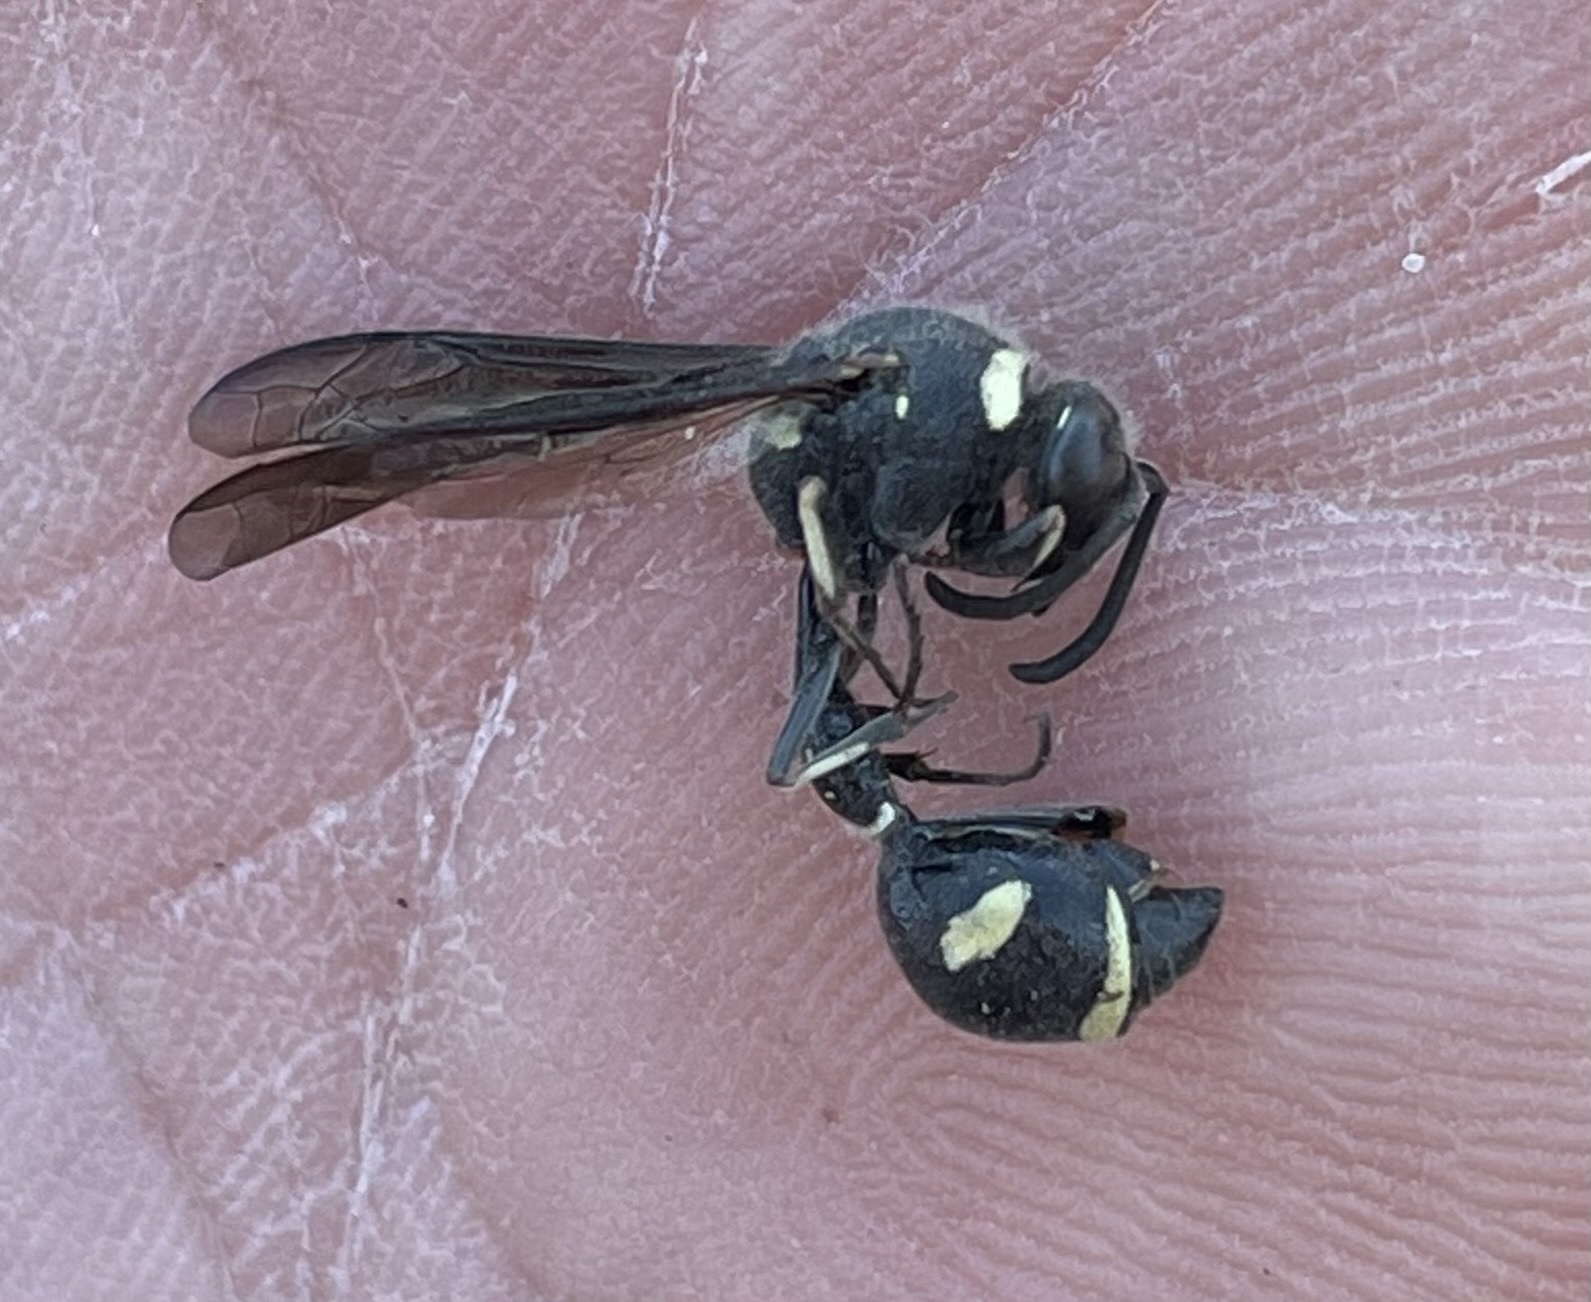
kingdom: Animalia
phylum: Arthropoda
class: Insecta
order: Hymenoptera
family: Vespidae
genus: Eumenes
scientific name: Eumenes fraternus
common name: Fraternal potter wasp
